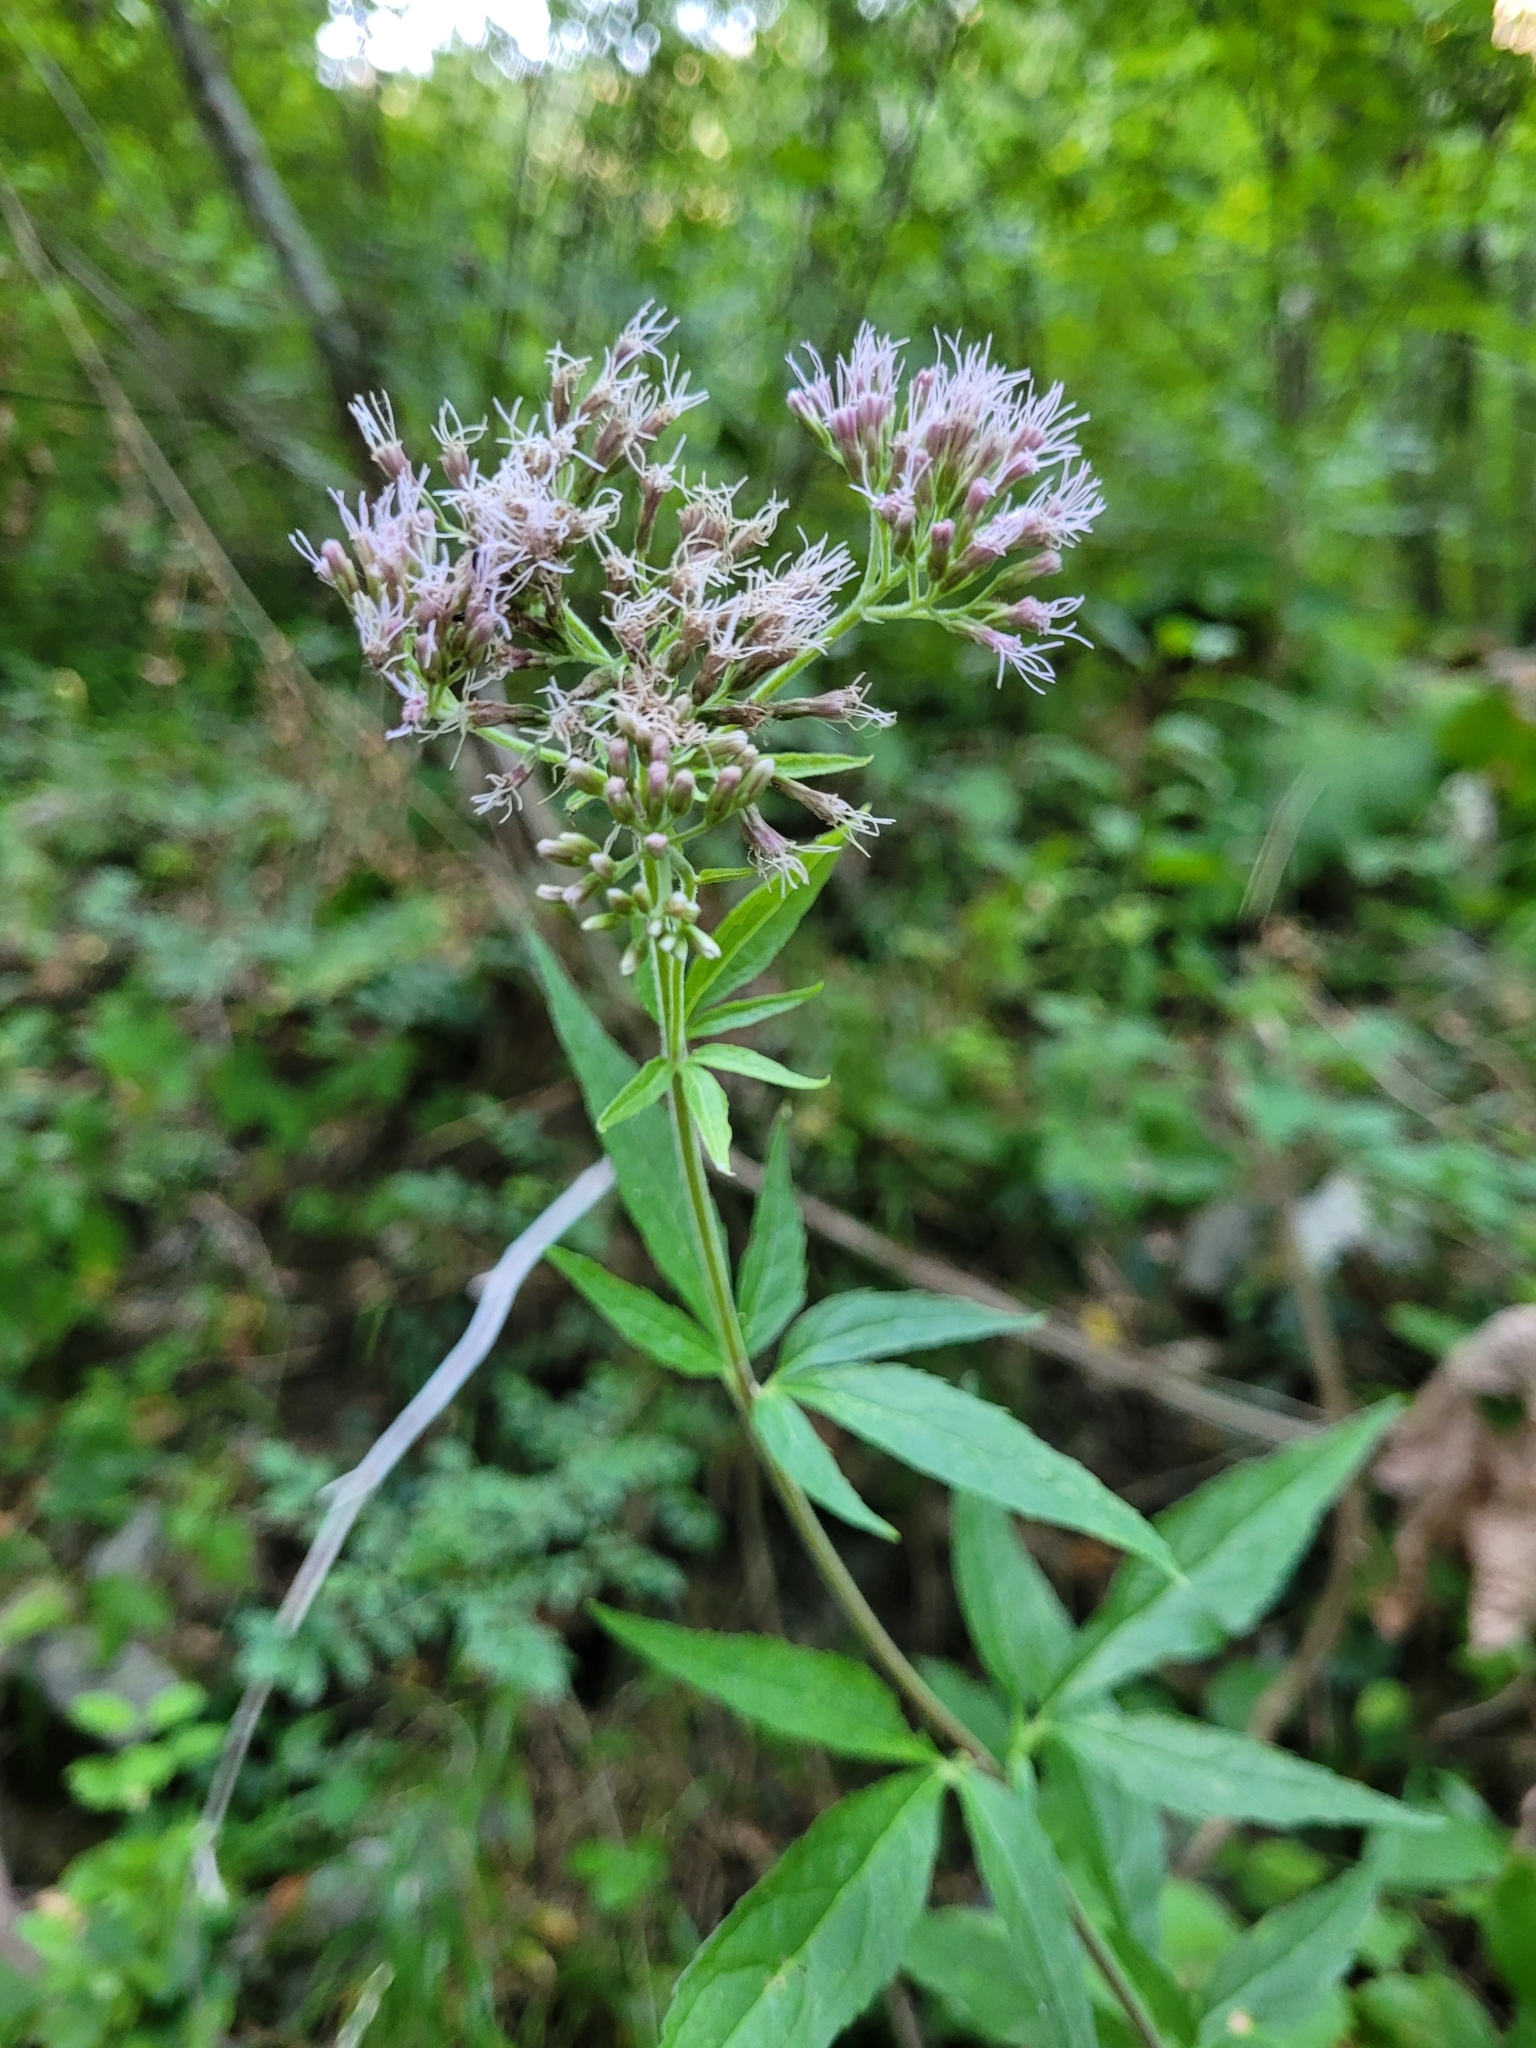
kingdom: Plantae
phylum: Tracheophyta
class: Magnoliopsida
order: Asterales
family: Asteraceae
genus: Eupatorium
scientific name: Eupatorium cannabinum
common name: Hemp-agrimony
